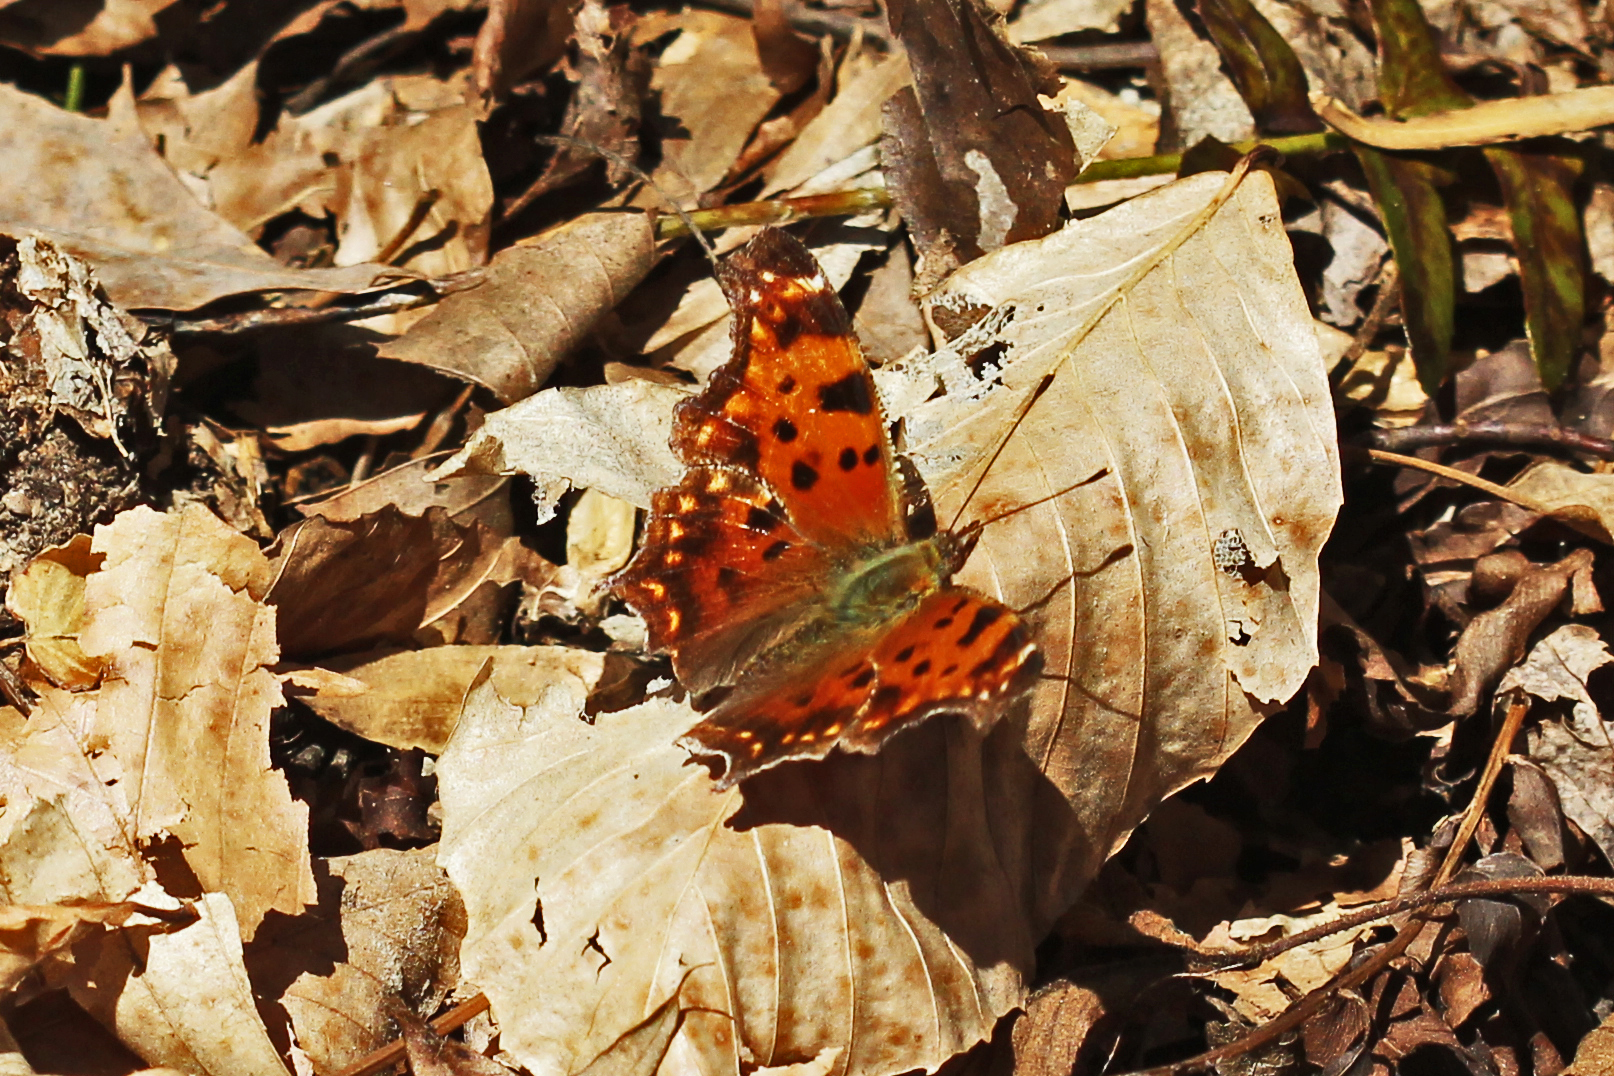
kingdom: Animalia
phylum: Arthropoda
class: Insecta
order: Lepidoptera
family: Nymphalidae
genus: Polygonia
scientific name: Polygonia comma
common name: Eastern comma
